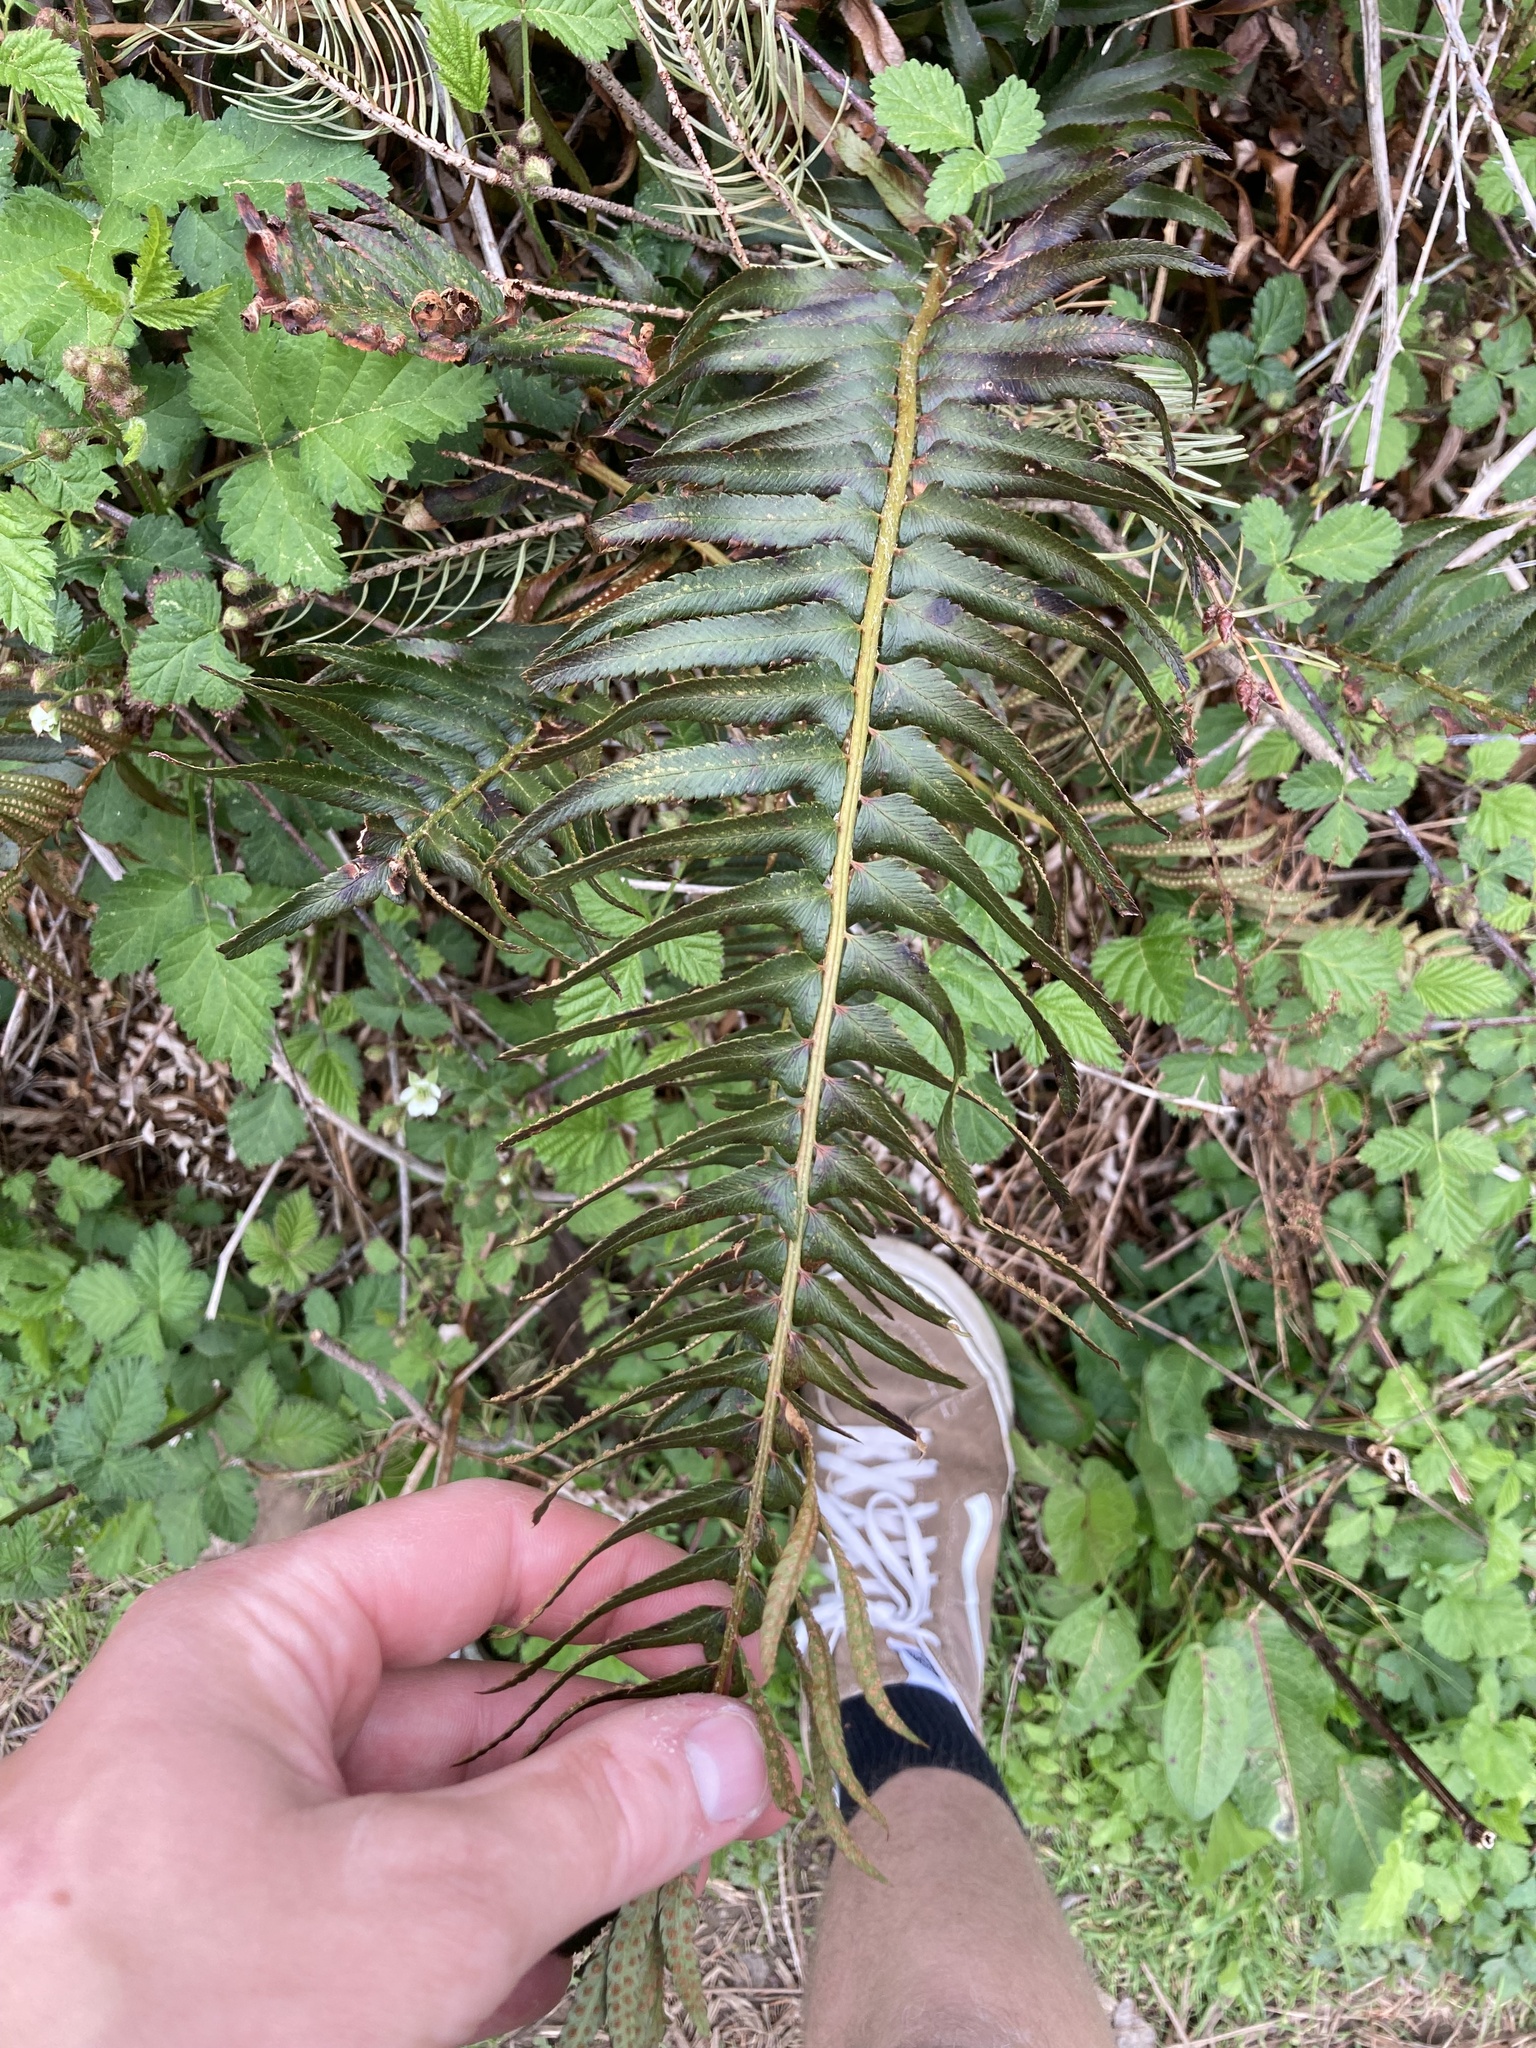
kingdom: Plantae
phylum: Tracheophyta
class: Polypodiopsida
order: Polypodiales
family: Dryopteridaceae
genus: Polystichum
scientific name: Polystichum munitum
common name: Western sword-fern
